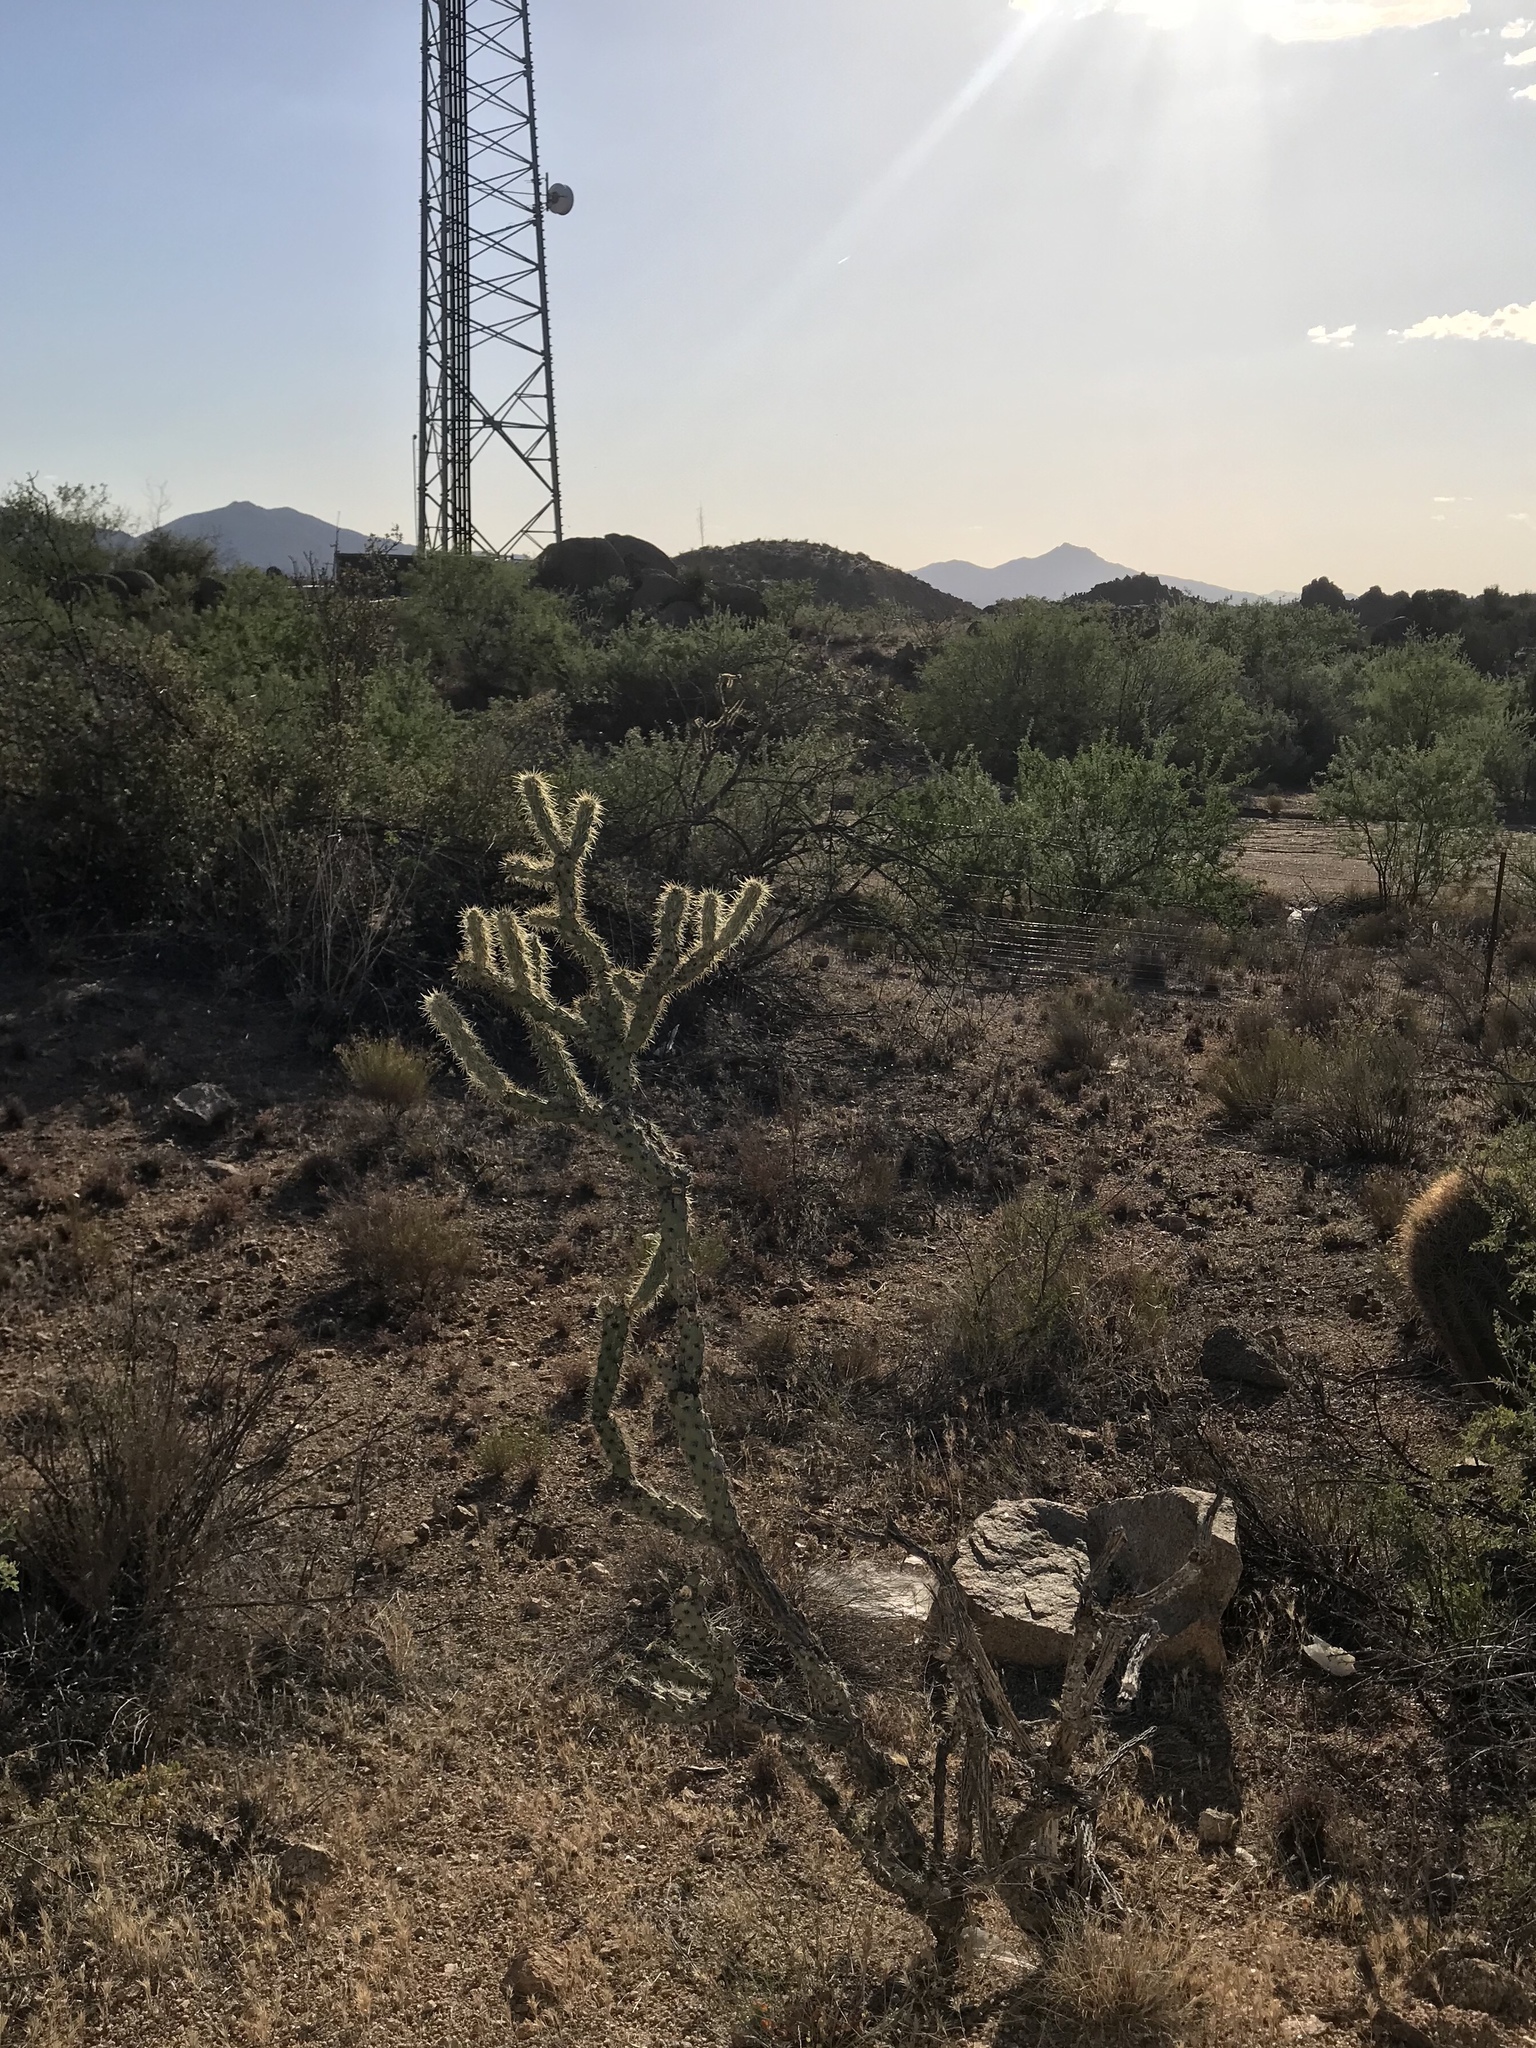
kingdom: Plantae
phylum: Tracheophyta
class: Magnoliopsida
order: Caryophyllales
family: Cactaceae
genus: Cylindropuntia
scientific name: Cylindropuntia acanthocarpa
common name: Buckhorn cholla
